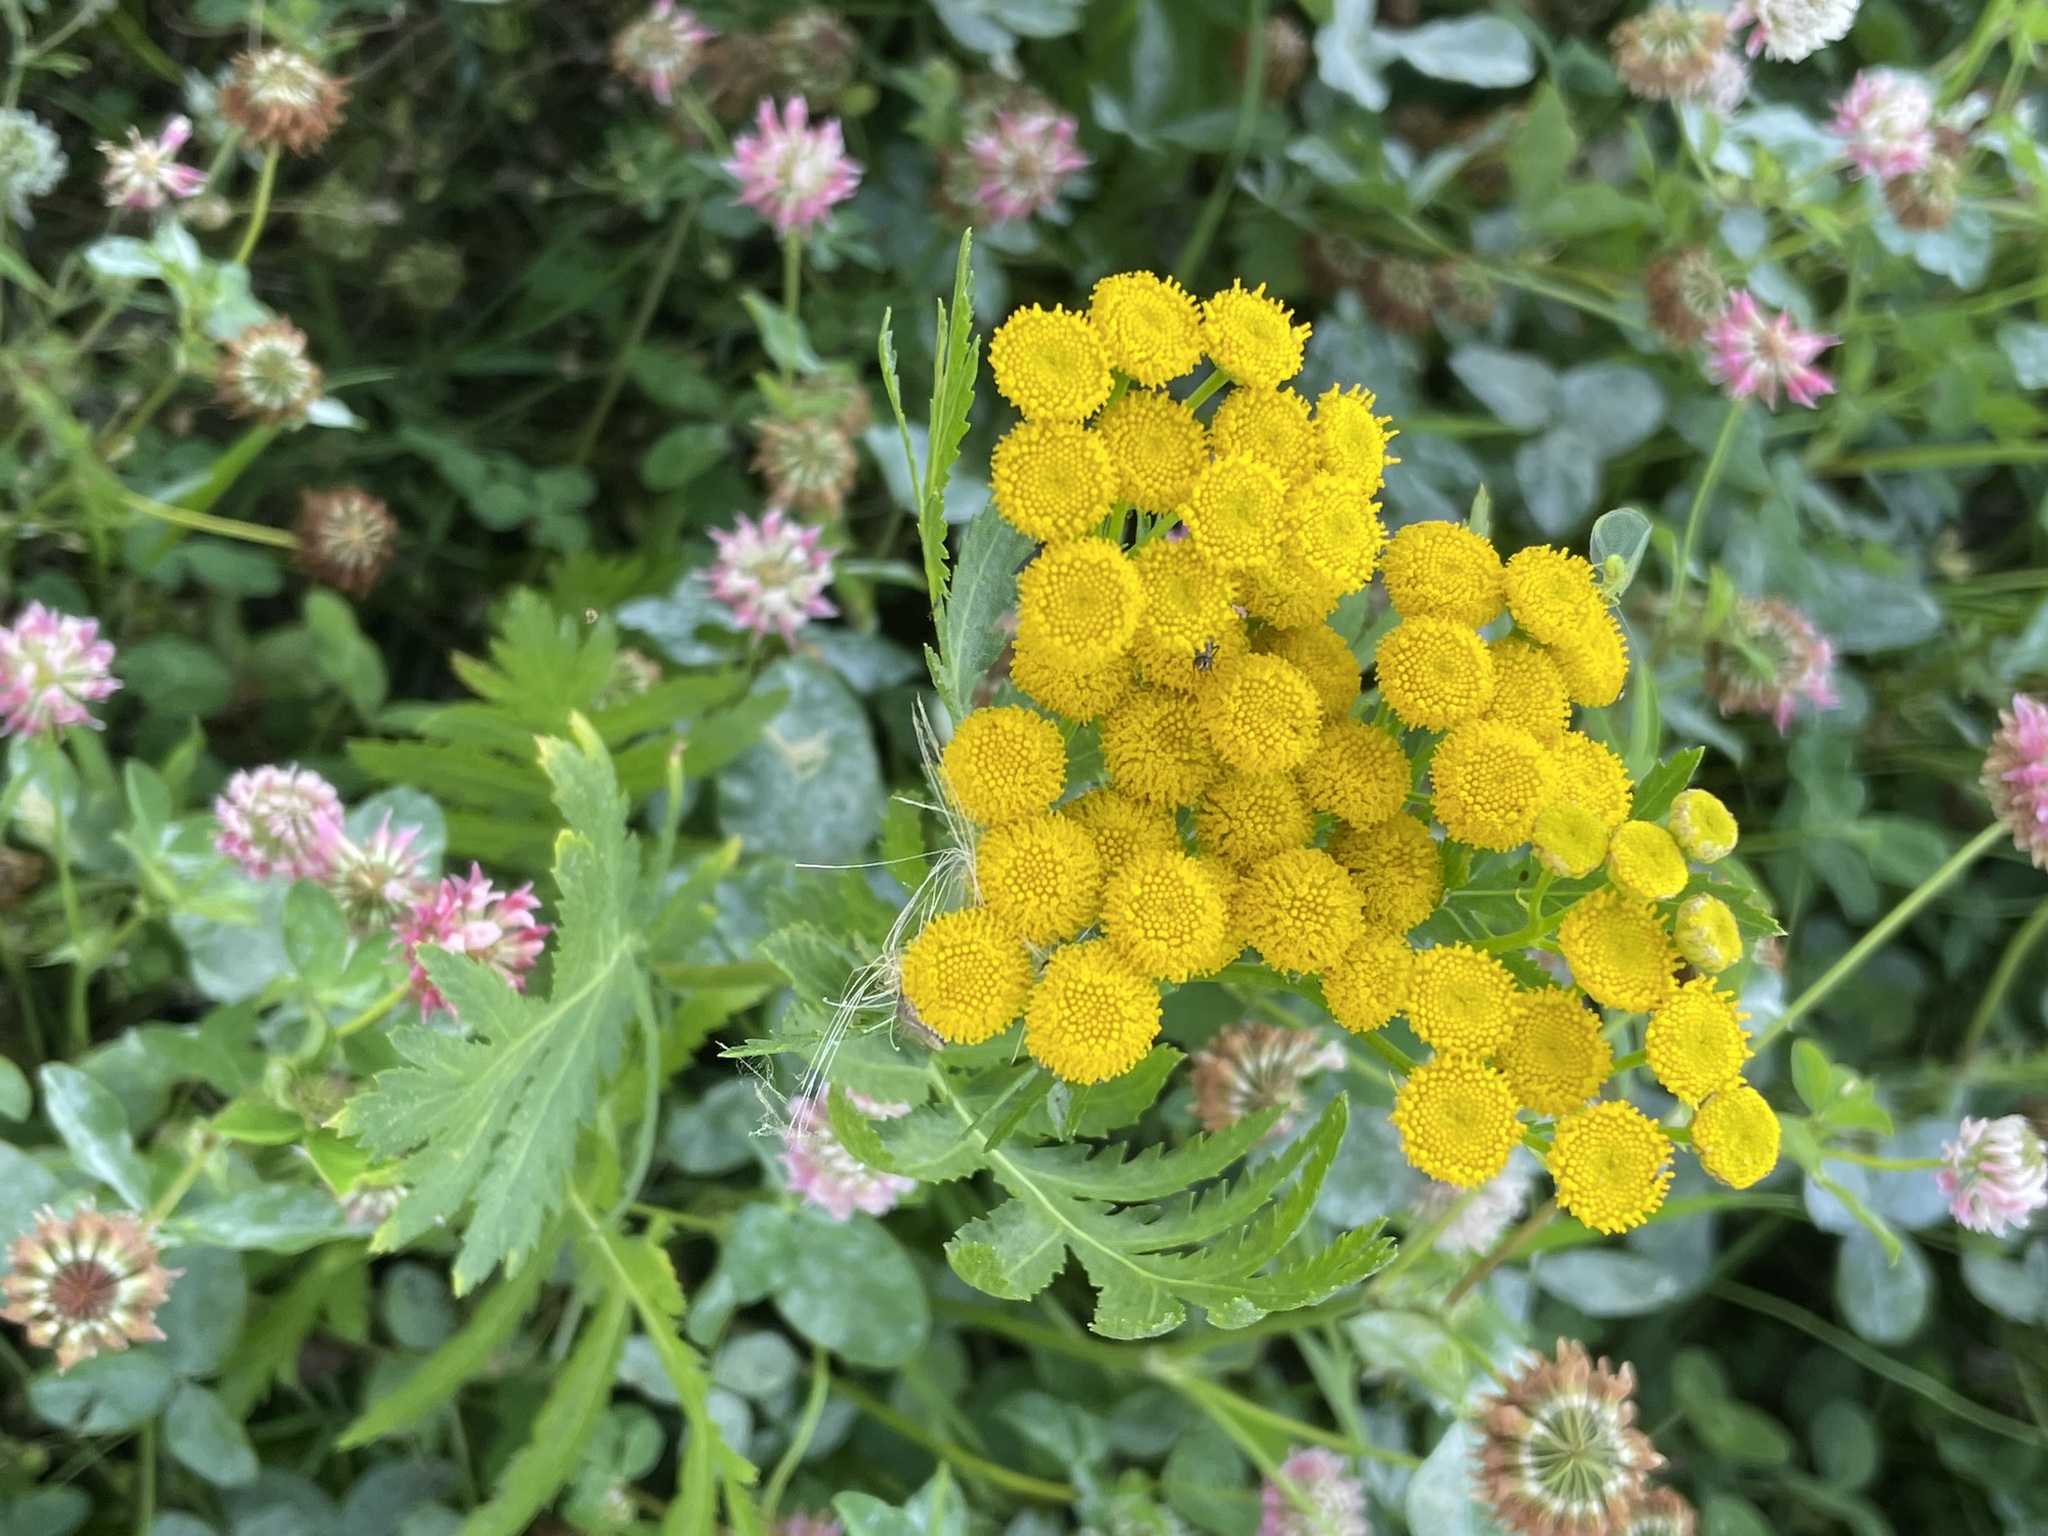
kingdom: Plantae
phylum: Tracheophyta
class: Magnoliopsida
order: Asterales
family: Asteraceae
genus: Tanacetum
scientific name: Tanacetum vulgare
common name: Common tansy
